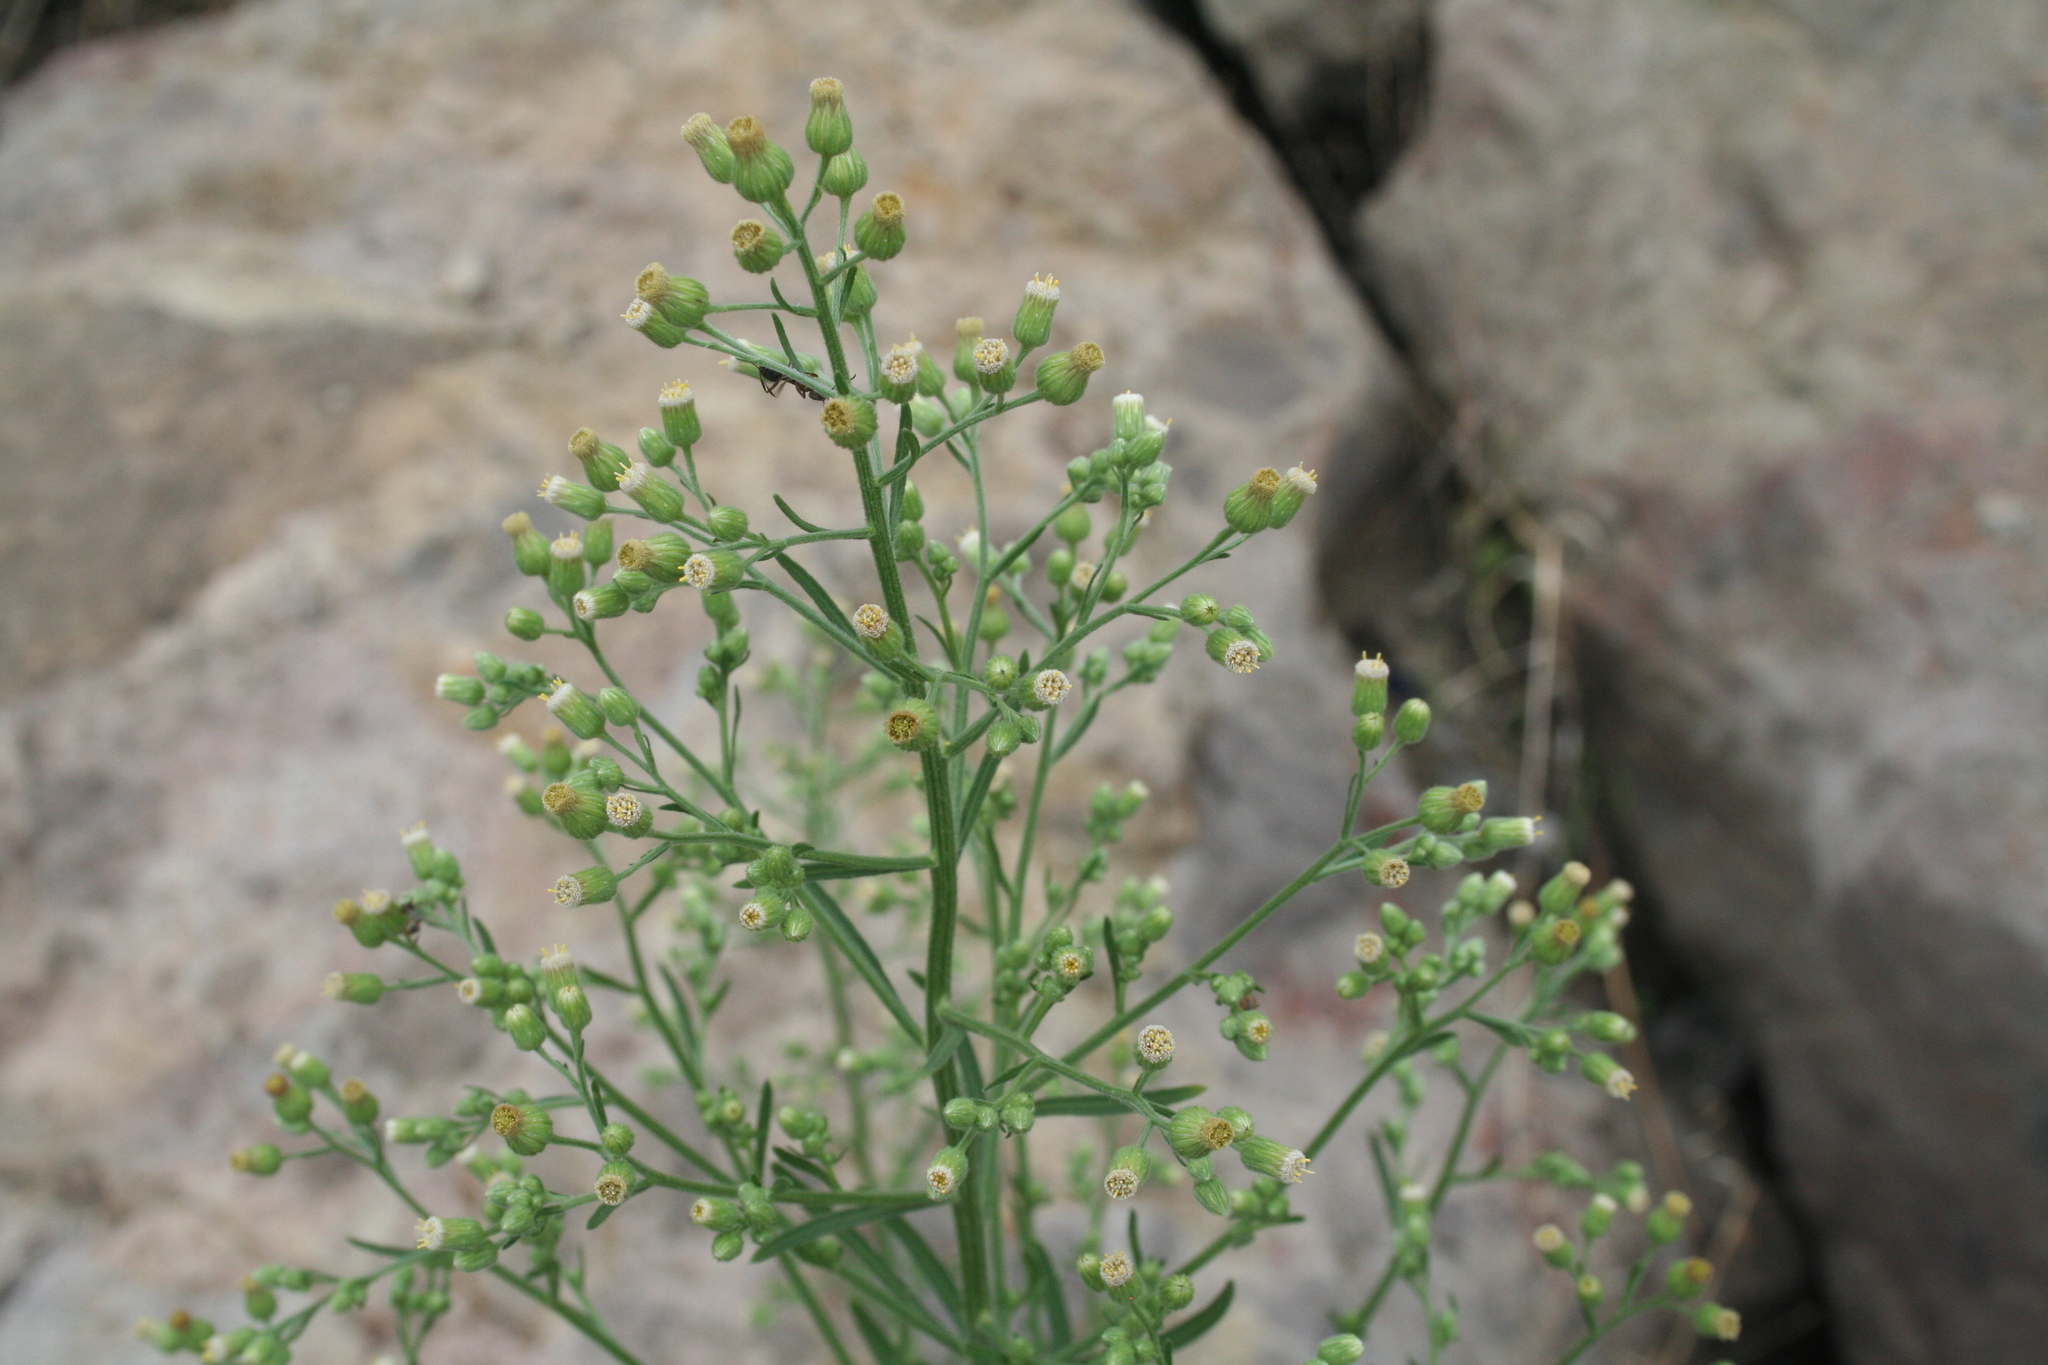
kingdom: Plantae
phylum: Tracheophyta
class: Magnoliopsida
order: Asterales
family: Asteraceae
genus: Erigeron
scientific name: Erigeron sumatrensis
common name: Daisy
